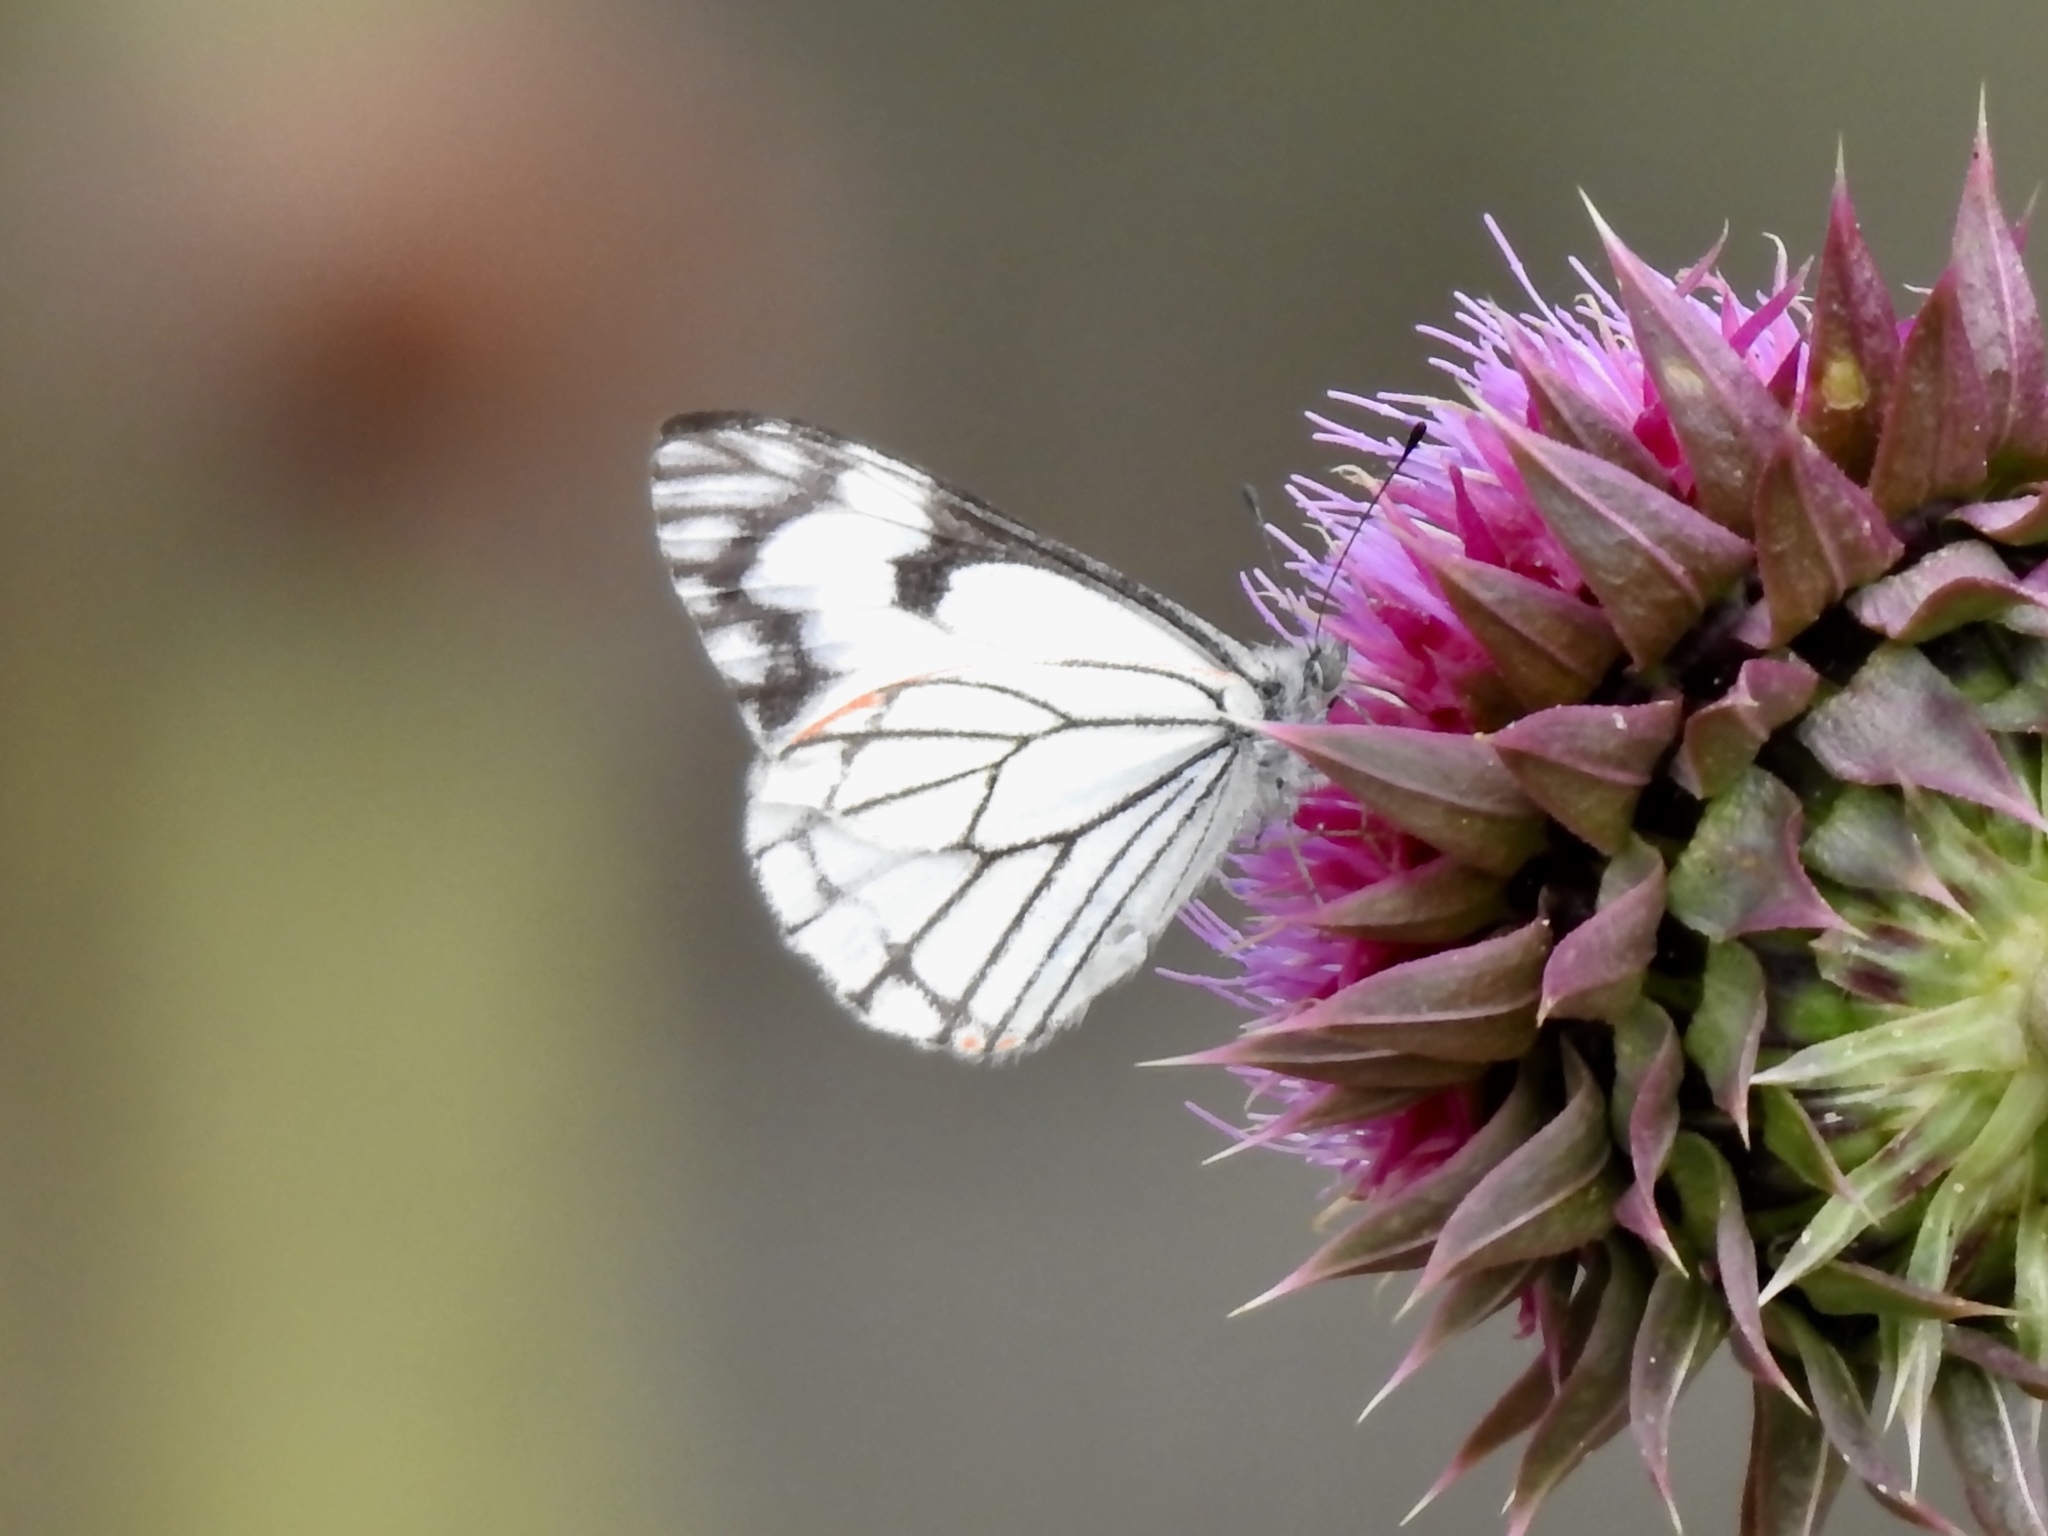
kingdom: Animalia
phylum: Arthropoda
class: Insecta
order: Lepidoptera
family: Pieridae
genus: Neophasia
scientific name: Neophasia menapia
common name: Pine white
